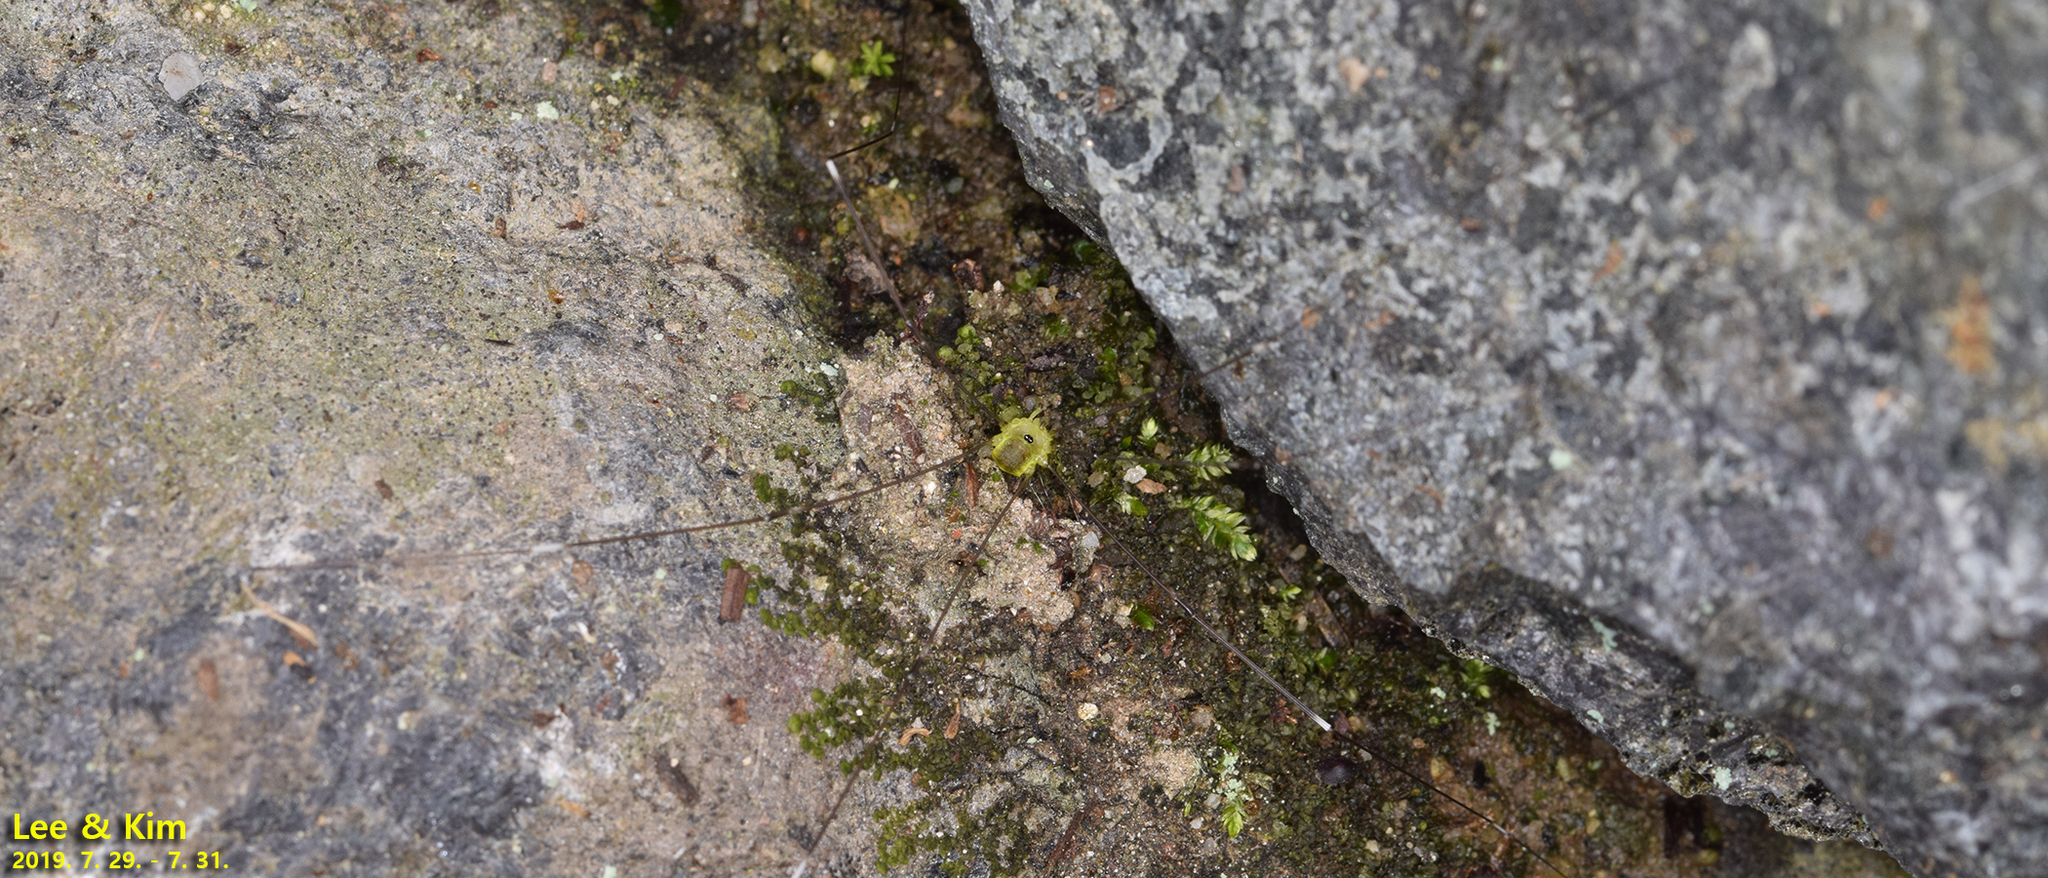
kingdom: Animalia
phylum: Arthropoda
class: Arachnida
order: Opiliones
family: Sclerosomatidae
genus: Leiobunum
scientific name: Leiobunum japonicum
